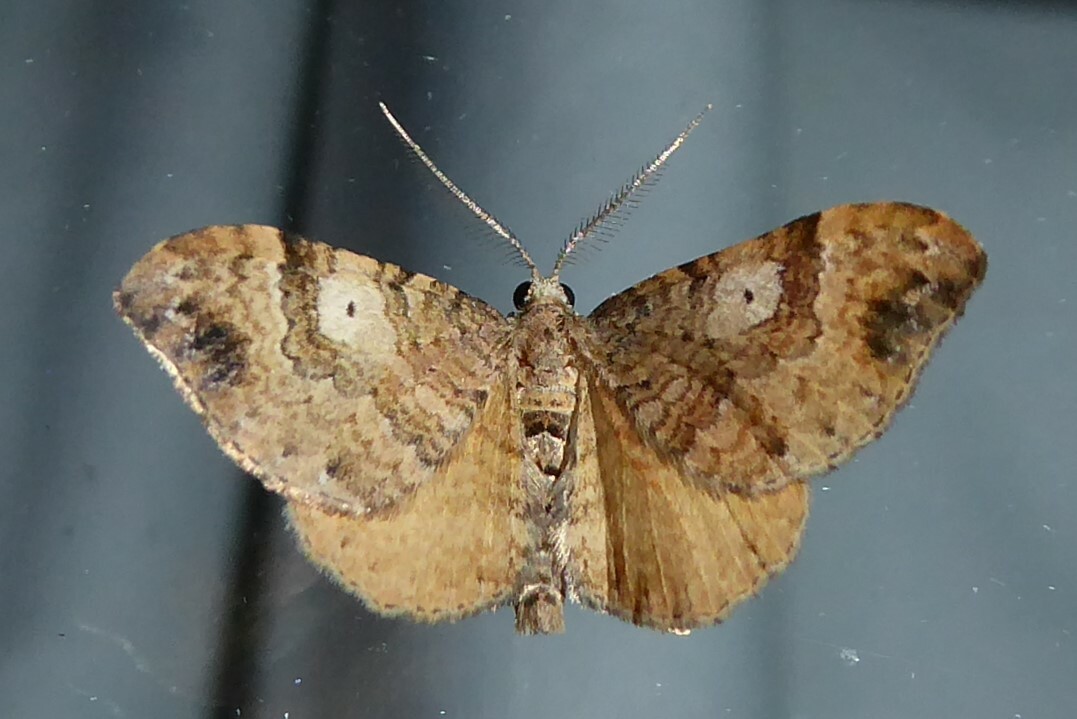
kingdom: Animalia
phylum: Arthropoda
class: Insecta
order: Lepidoptera
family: Geometridae
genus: Homodotis
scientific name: Homodotis megaspilata
